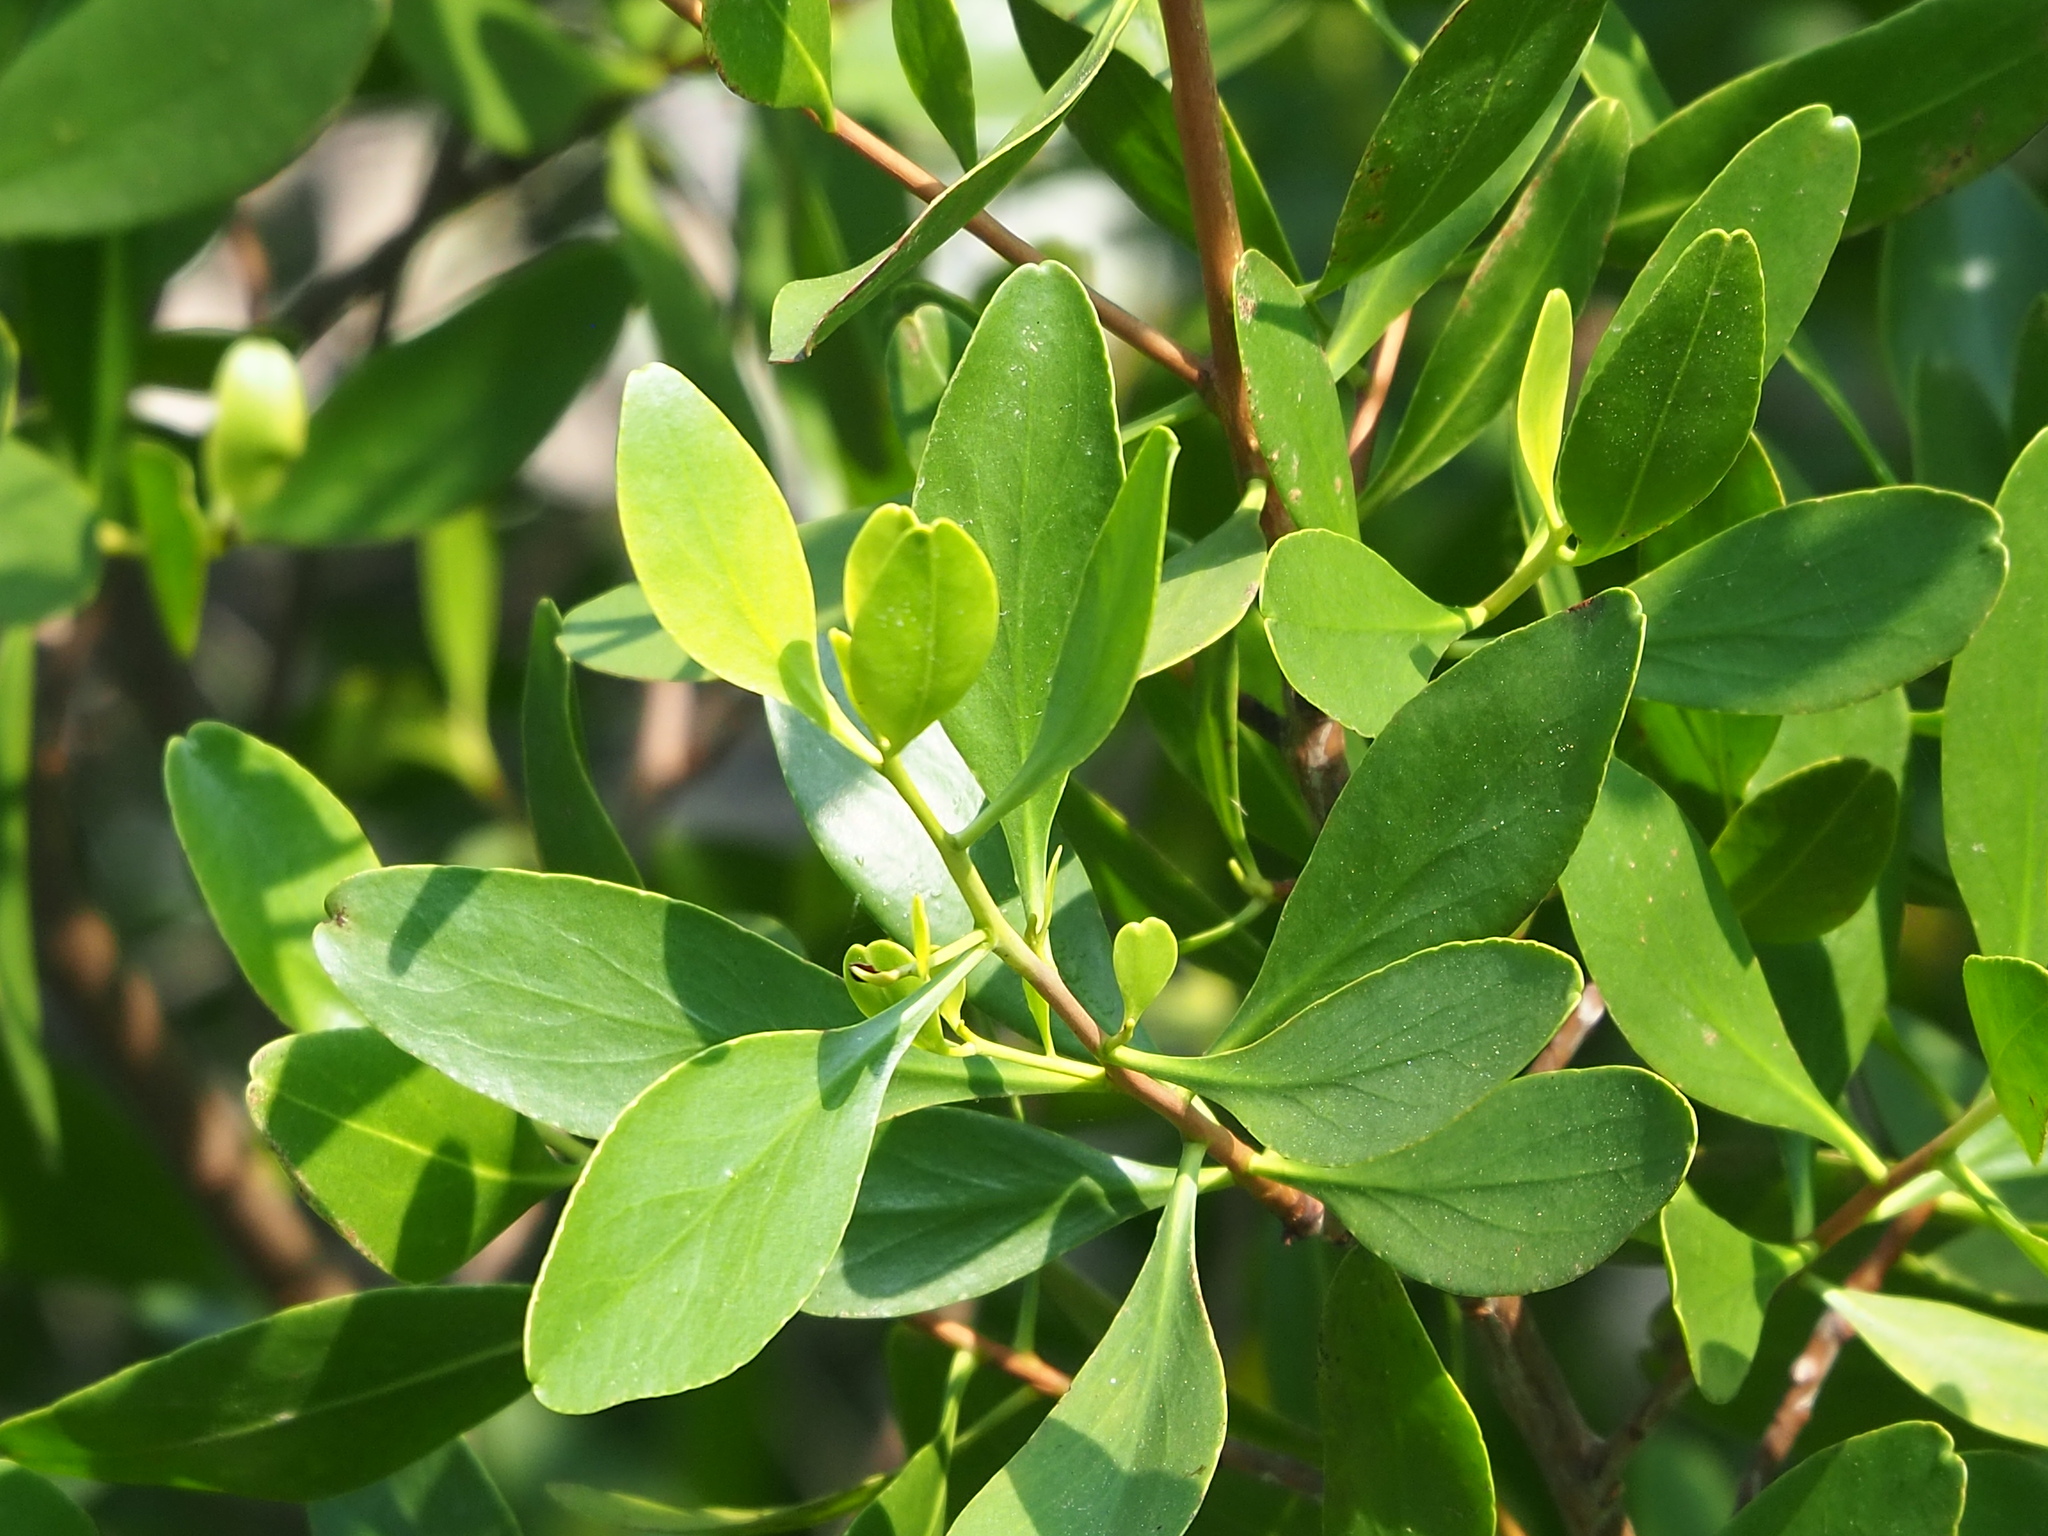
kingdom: Plantae
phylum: Tracheophyta
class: Magnoliopsida
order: Myrtales
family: Combretaceae
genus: Lumnitzera
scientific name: Lumnitzera racemosa
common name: White-flowered black mangrove
